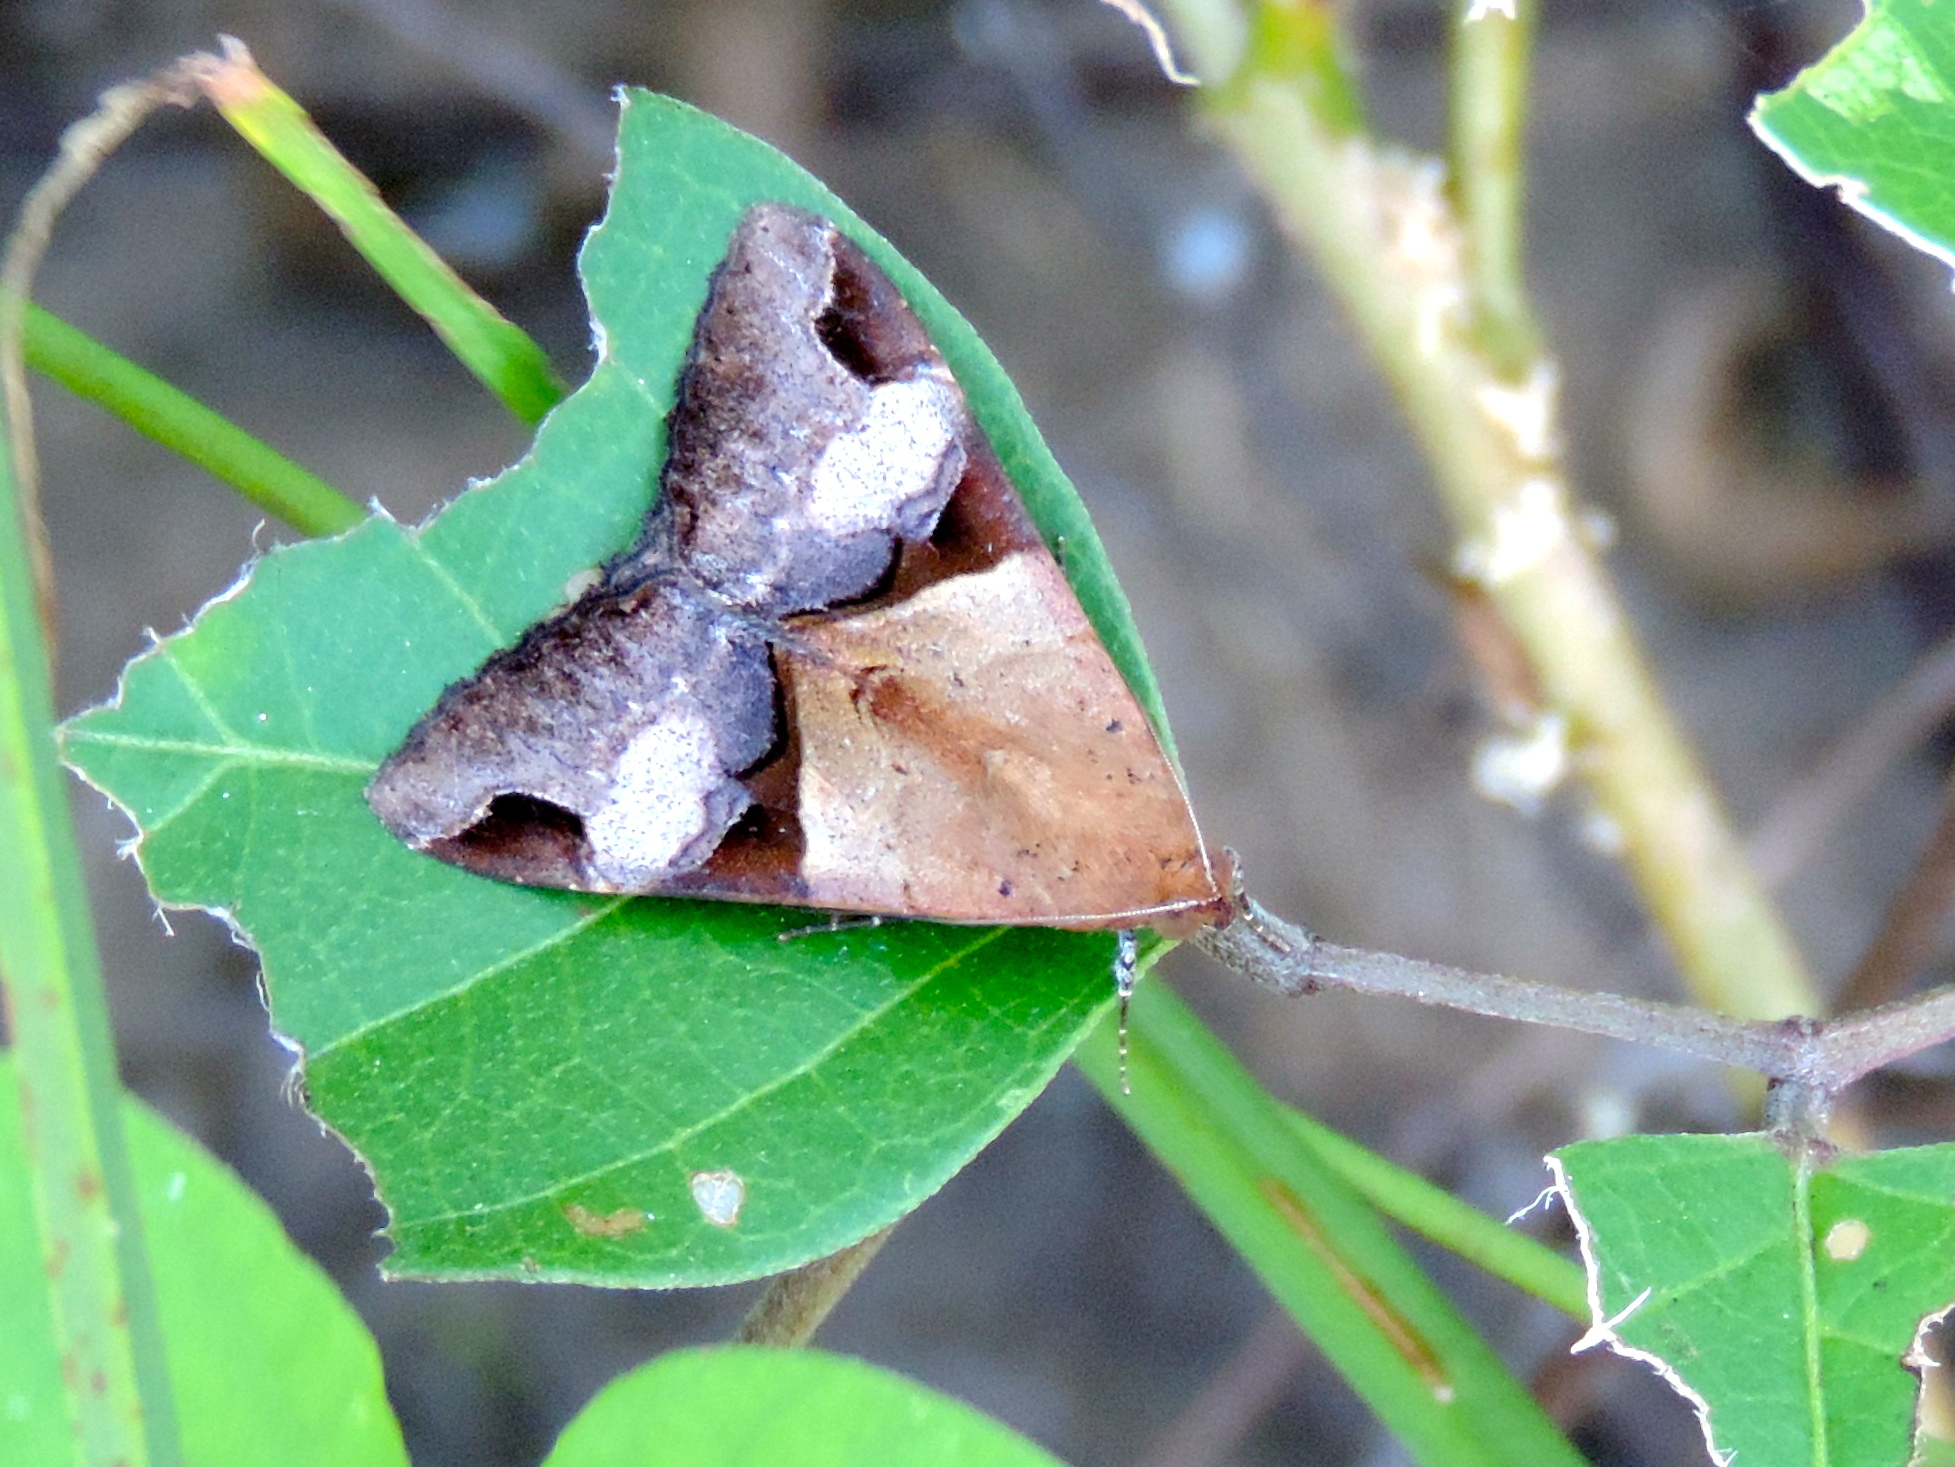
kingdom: Animalia
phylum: Arthropoda
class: Insecta
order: Lepidoptera
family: Erebidae
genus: Melipotis
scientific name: Melipotis fasciolaris
